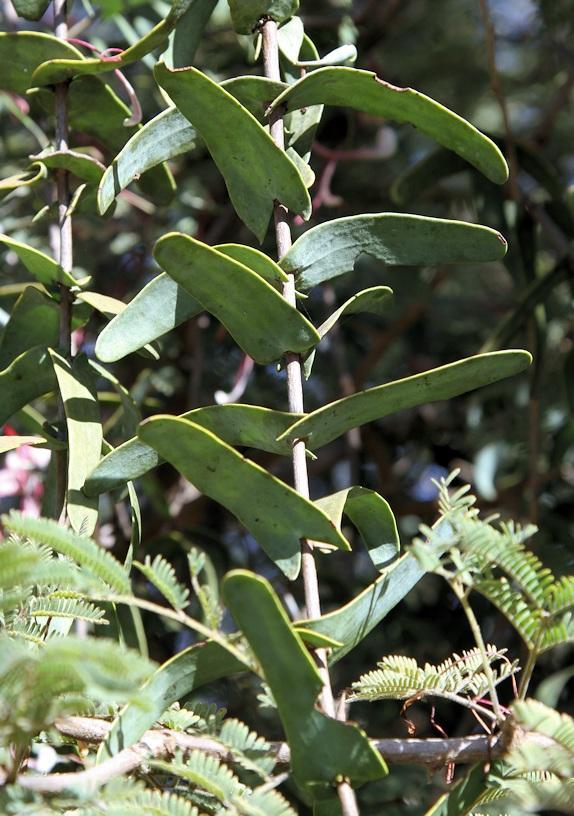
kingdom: Plantae
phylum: Tracheophyta
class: Magnoliopsida
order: Santalales
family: Loranthaceae
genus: Plicosepalus
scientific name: Plicosepalus amplexicaulis
